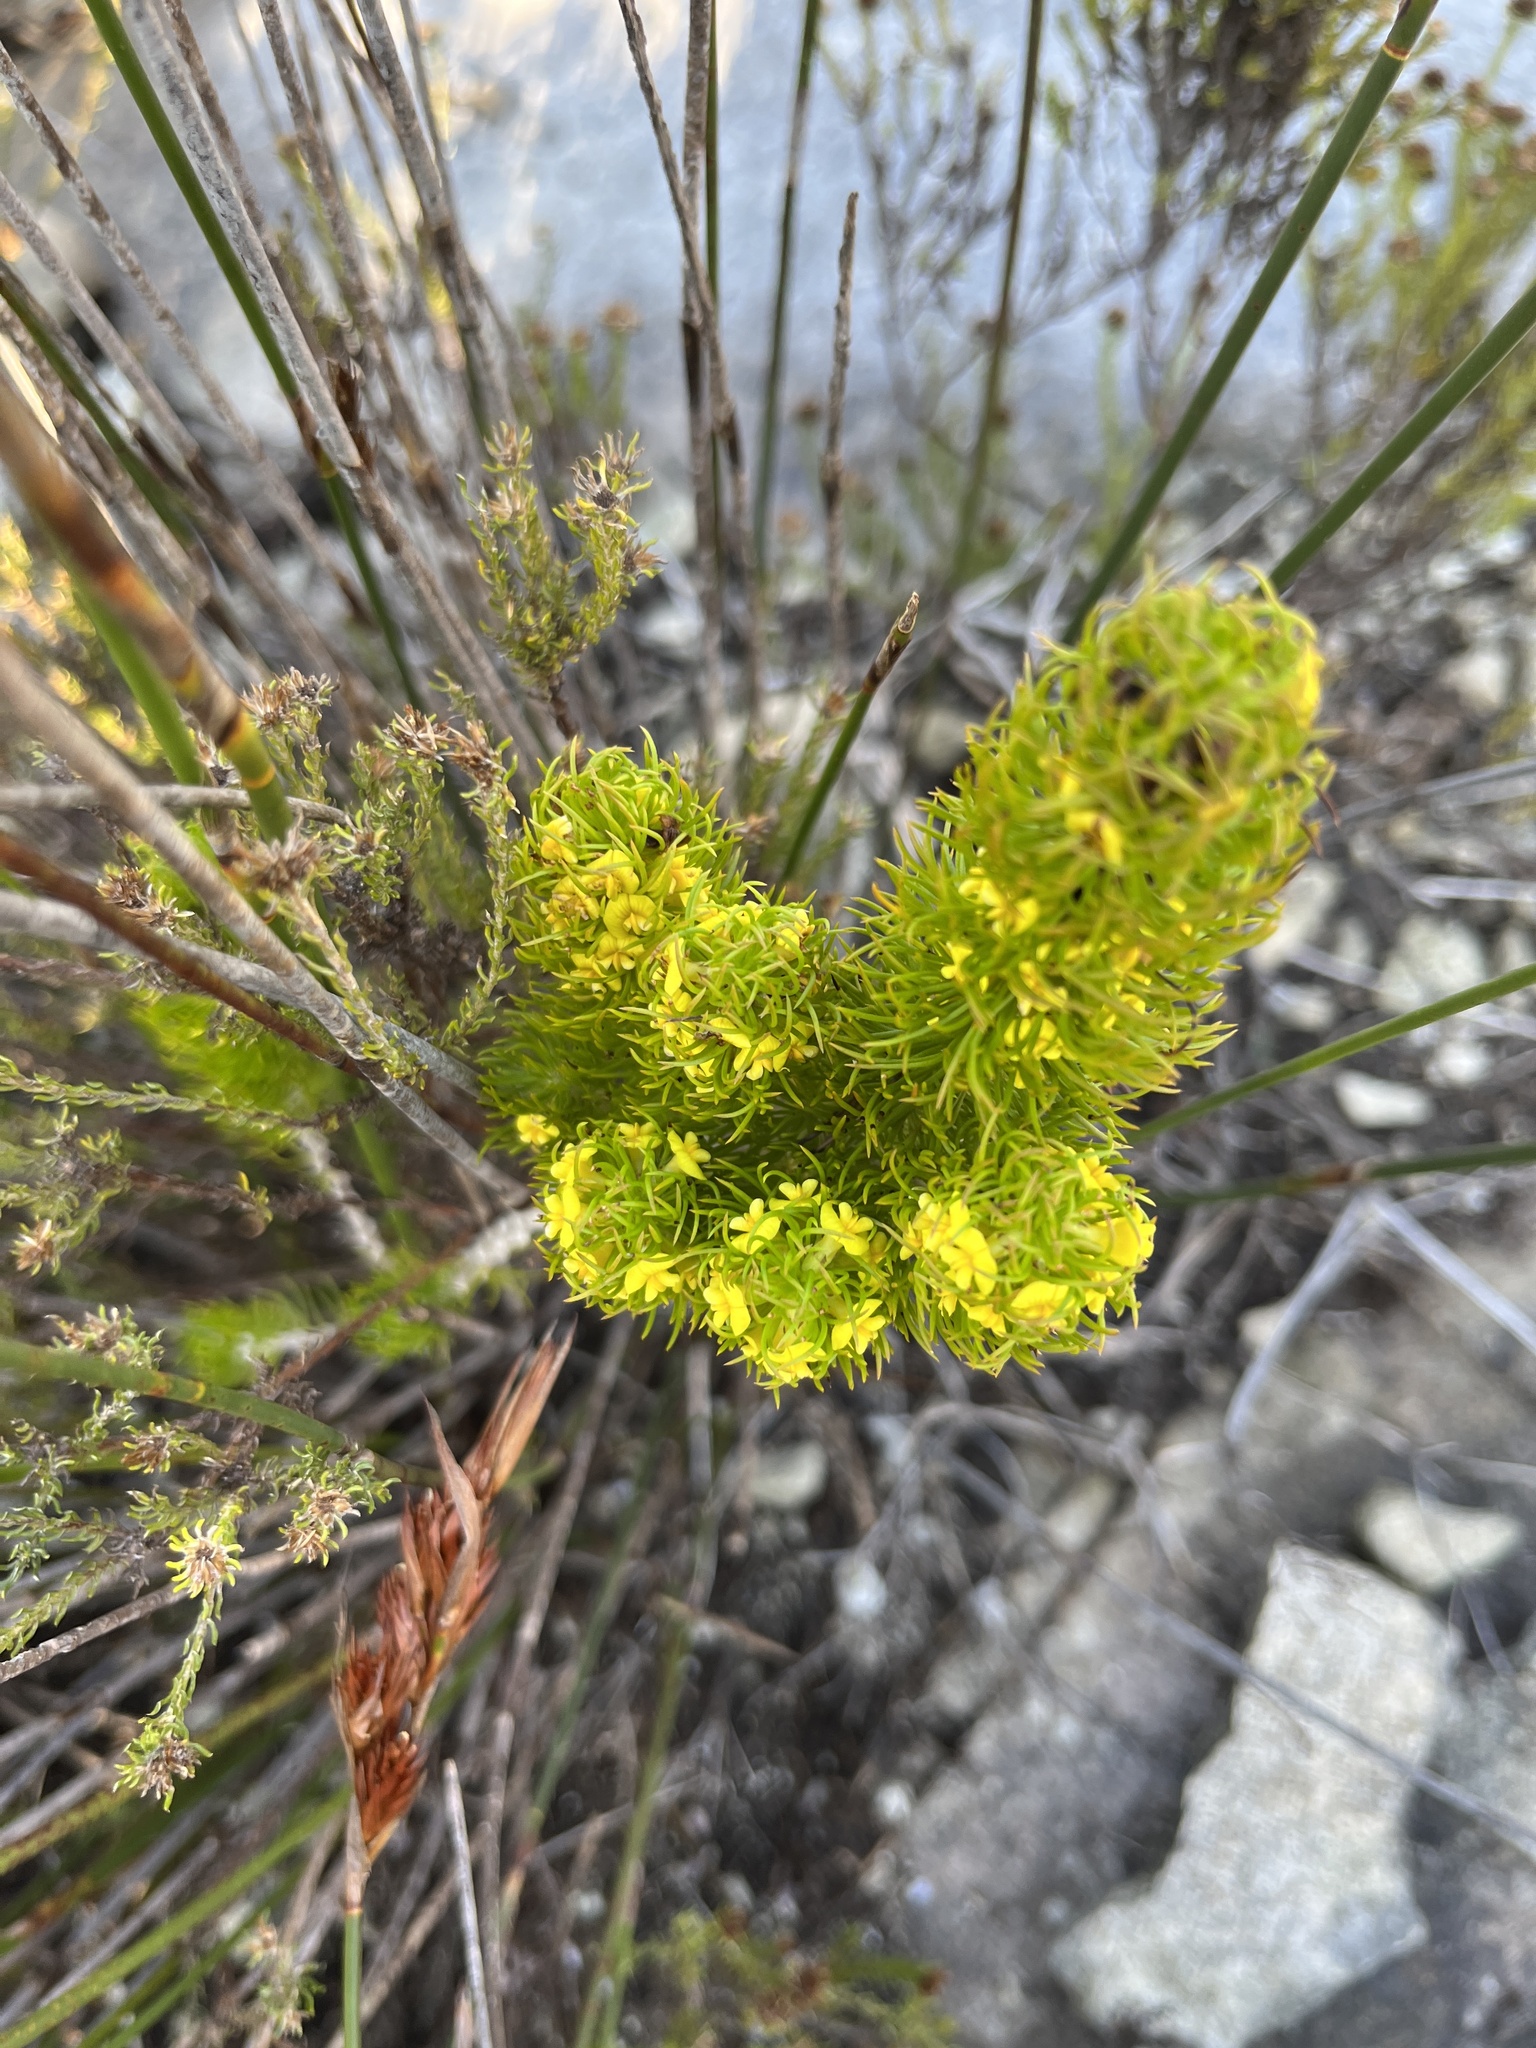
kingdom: Plantae
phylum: Tracheophyta
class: Magnoliopsida
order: Fabales
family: Fabaceae
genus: Aspalathus
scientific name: Aspalathus alopecurus
